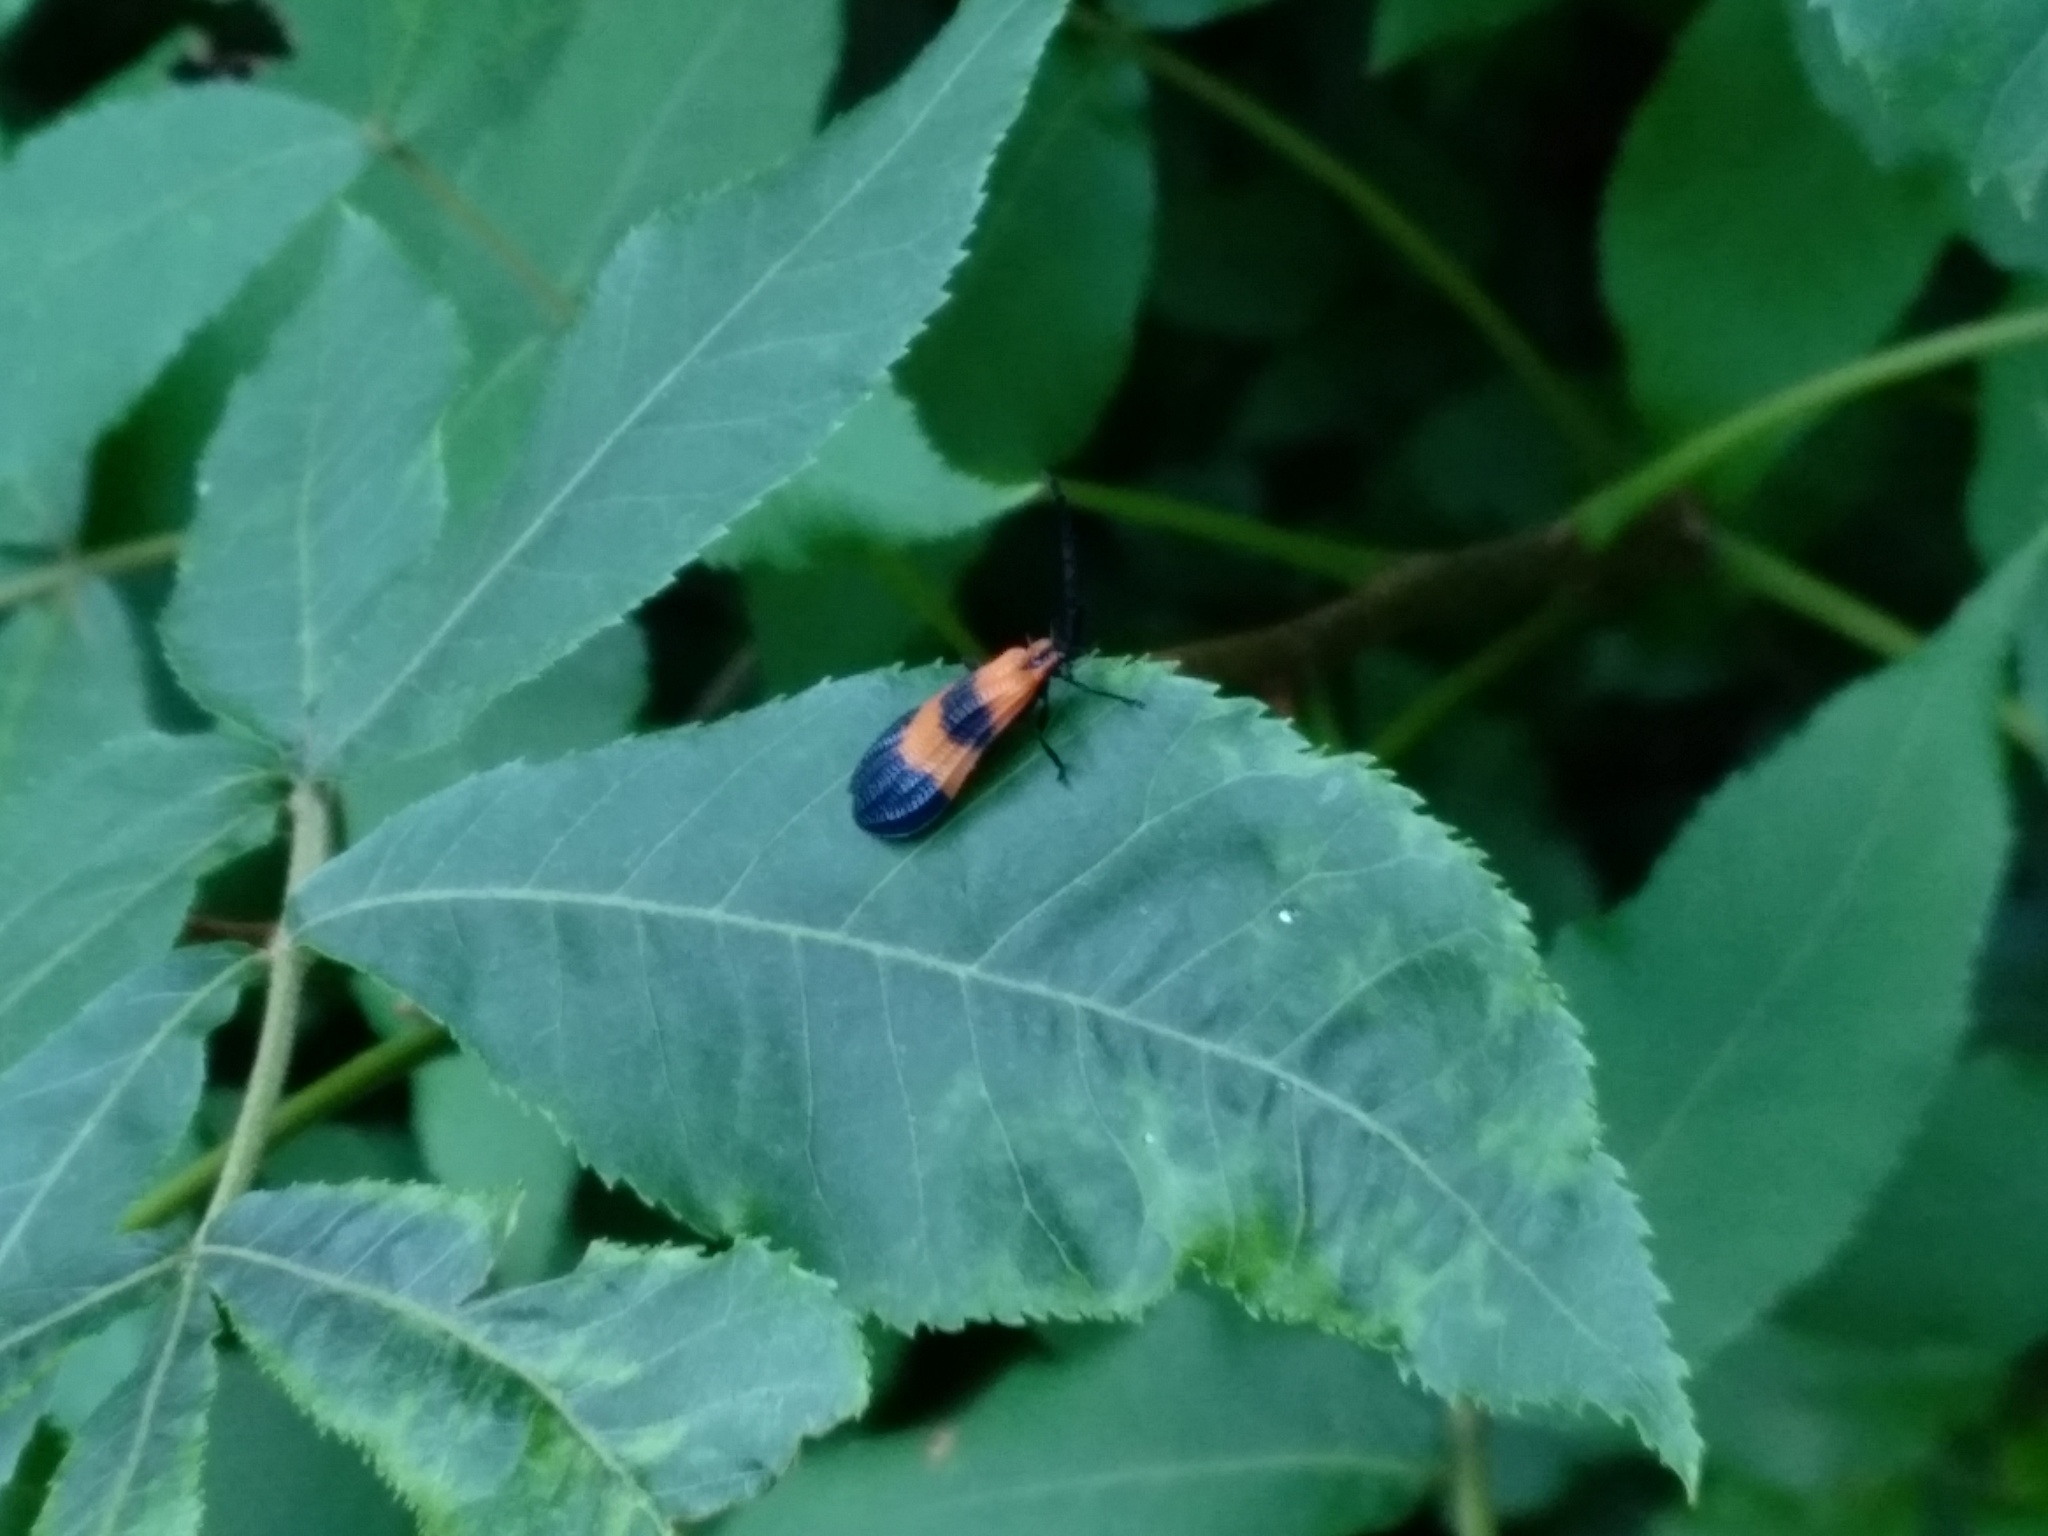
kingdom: Animalia
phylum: Arthropoda
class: Insecta
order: Coleoptera
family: Lycidae
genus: Calopteron
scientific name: Calopteron terminale
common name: End band net-winged beetle
